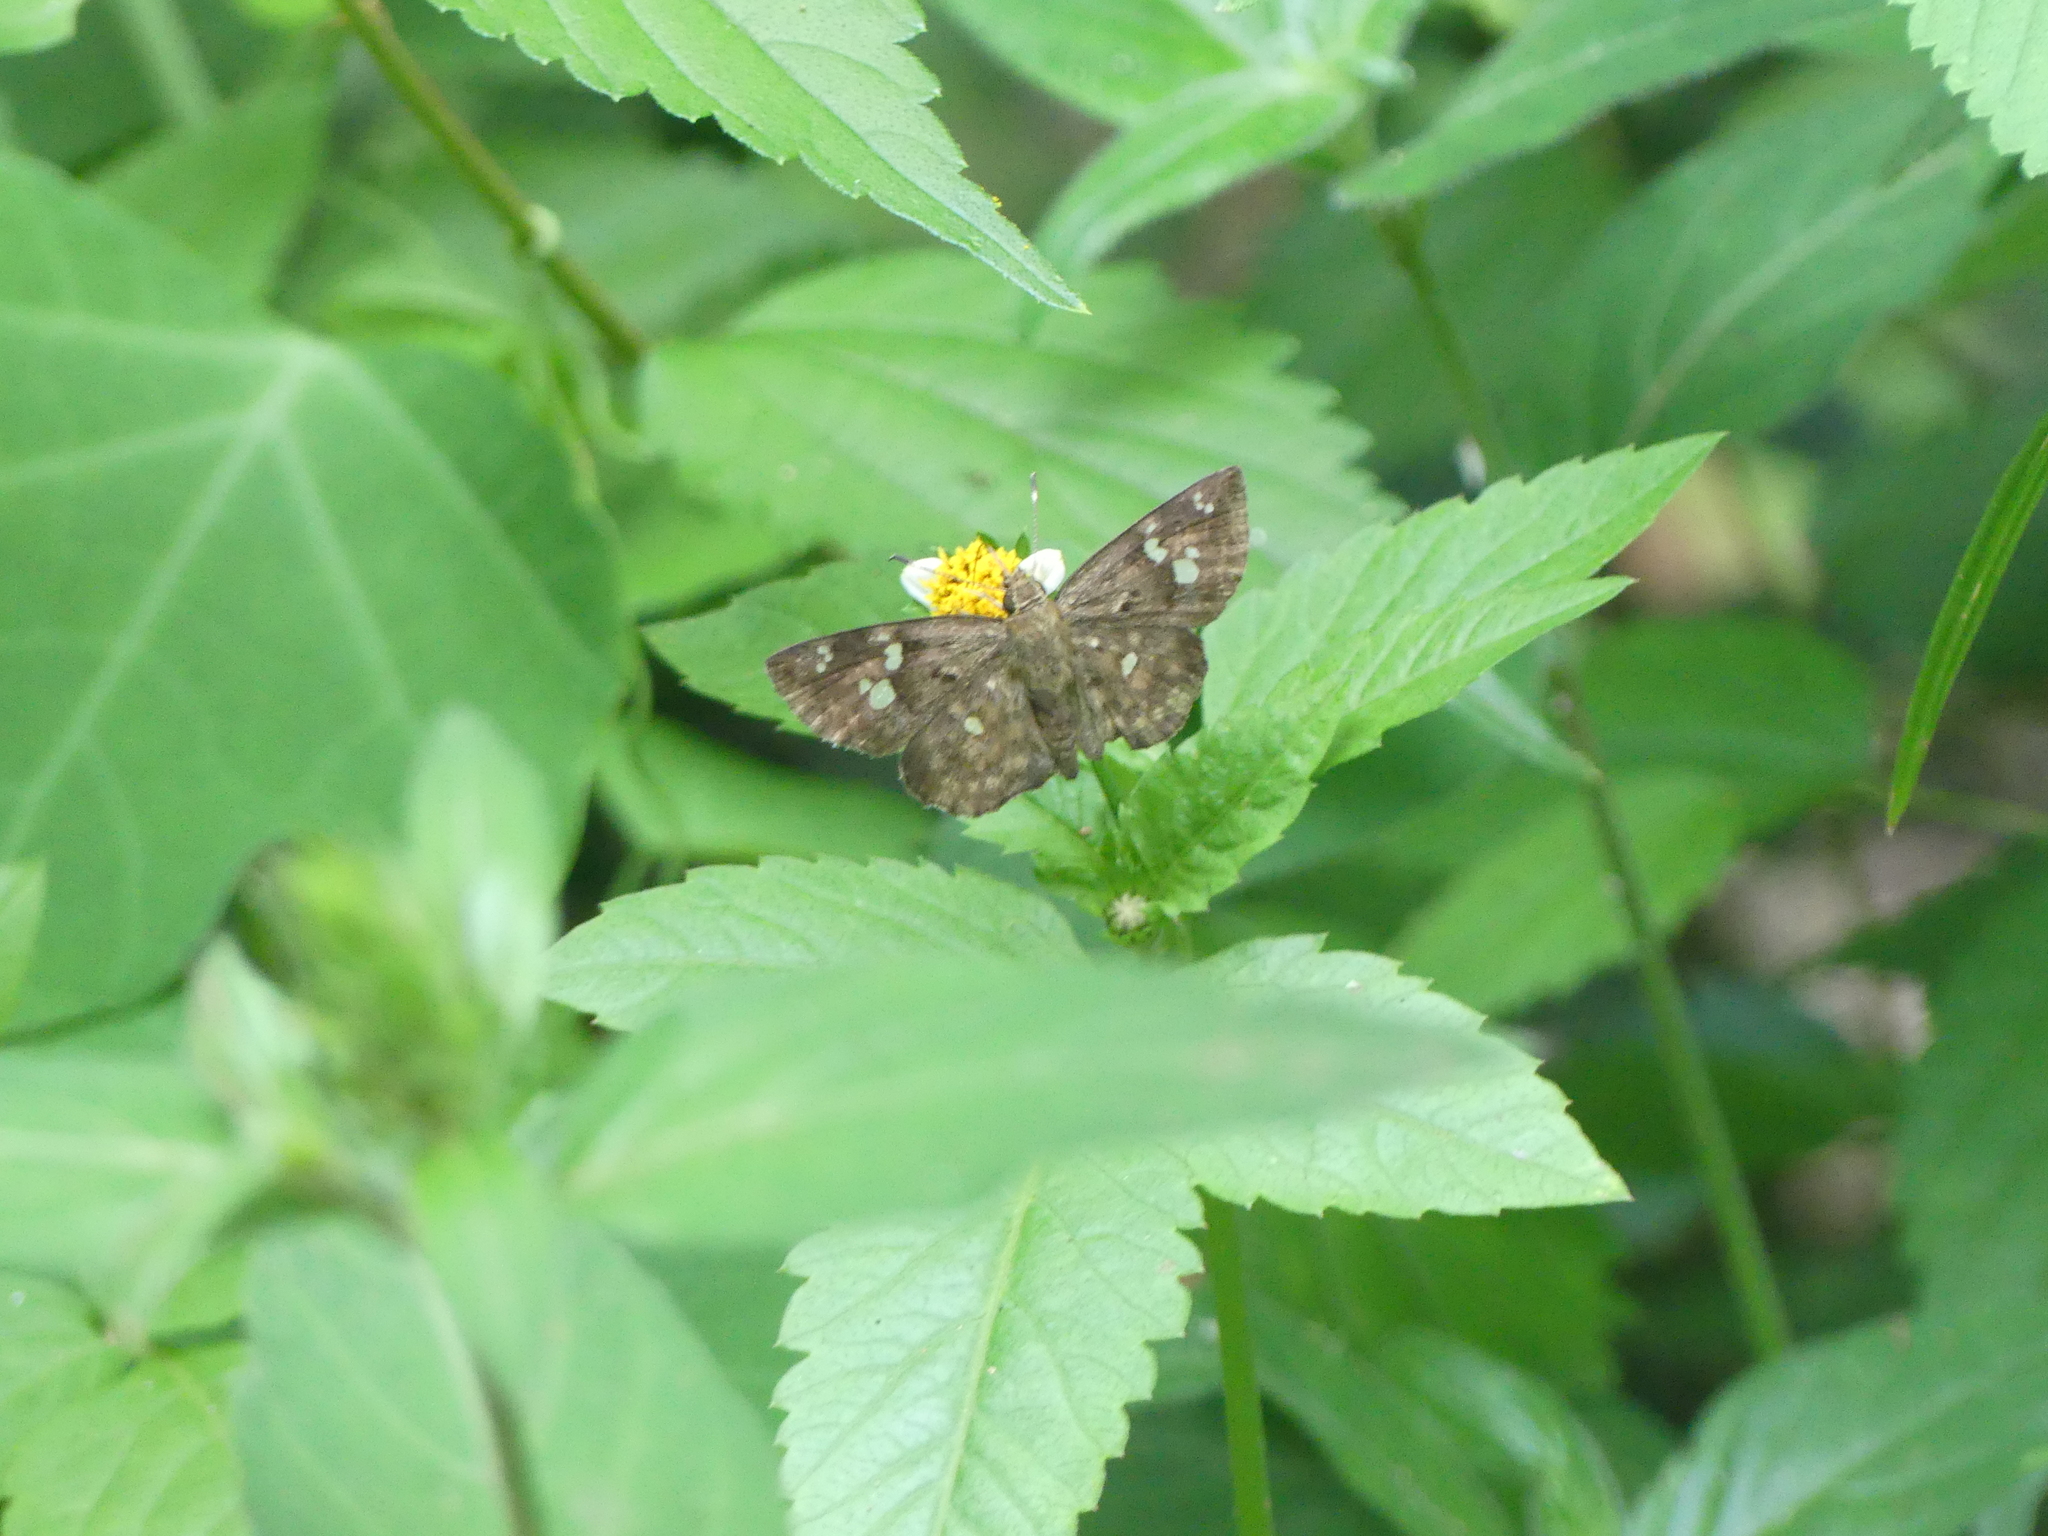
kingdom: Animalia
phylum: Arthropoda
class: Insecta
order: Lepidoptera
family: Hesperiidae
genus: Sarangesa
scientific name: Sarangesa motozi
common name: Forest elfin
